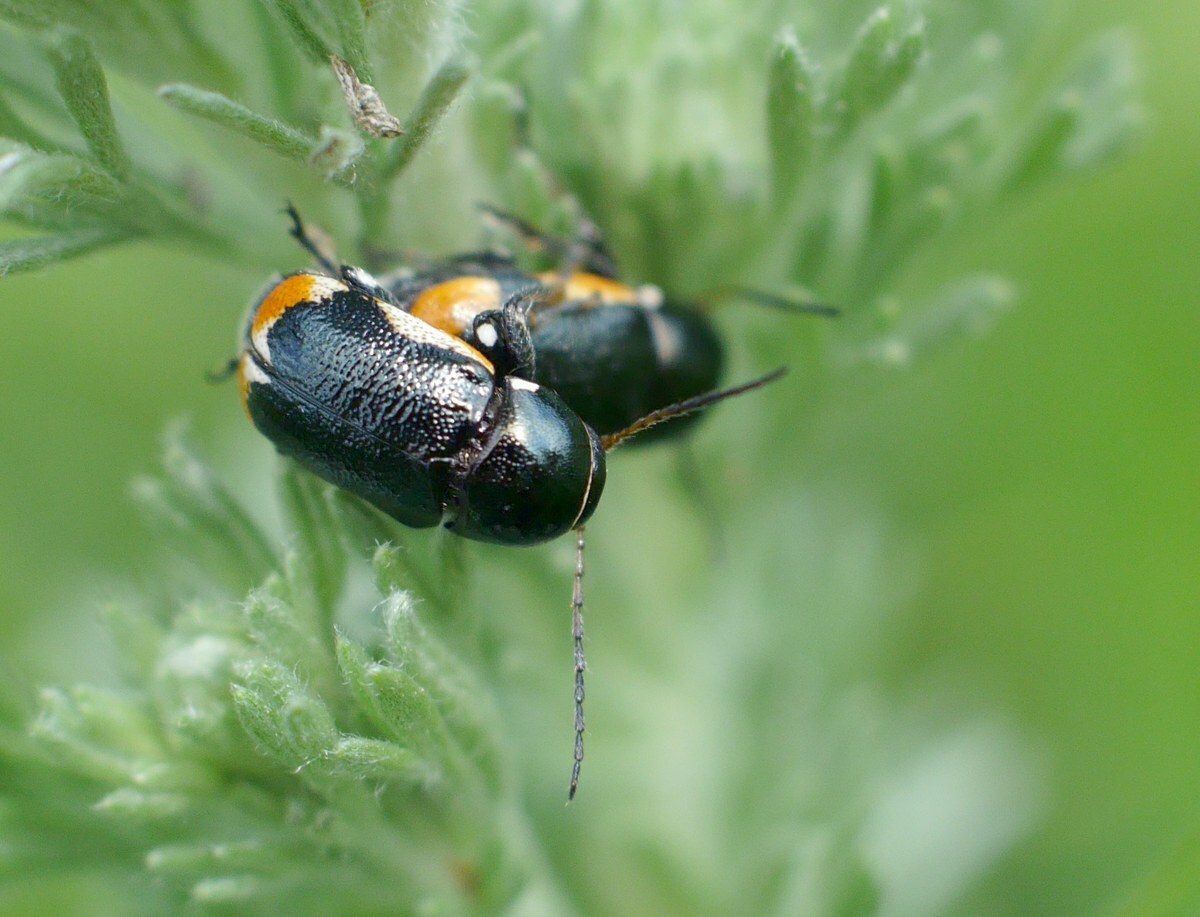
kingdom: Animalia
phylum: Arthropoda
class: Insecta
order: Coleoptera
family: Chrysomelidae
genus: Macromonycha
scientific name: Macromonycha apicalis
